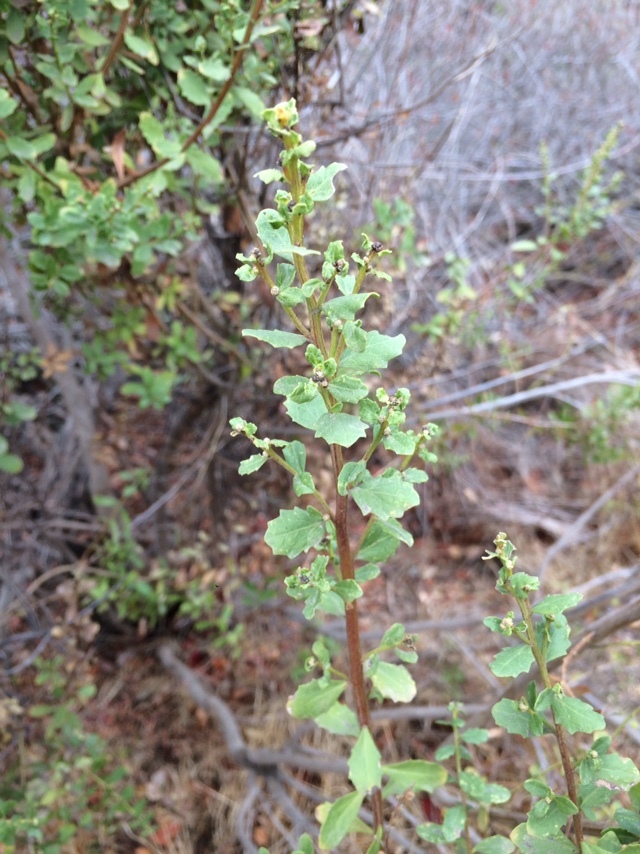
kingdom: Plantae
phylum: Tracheophyta
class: Magnoliopsida
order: Asterales
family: Asteraceae
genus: Baccharis
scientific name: Baccharis pilularis
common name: Coyotebrush
